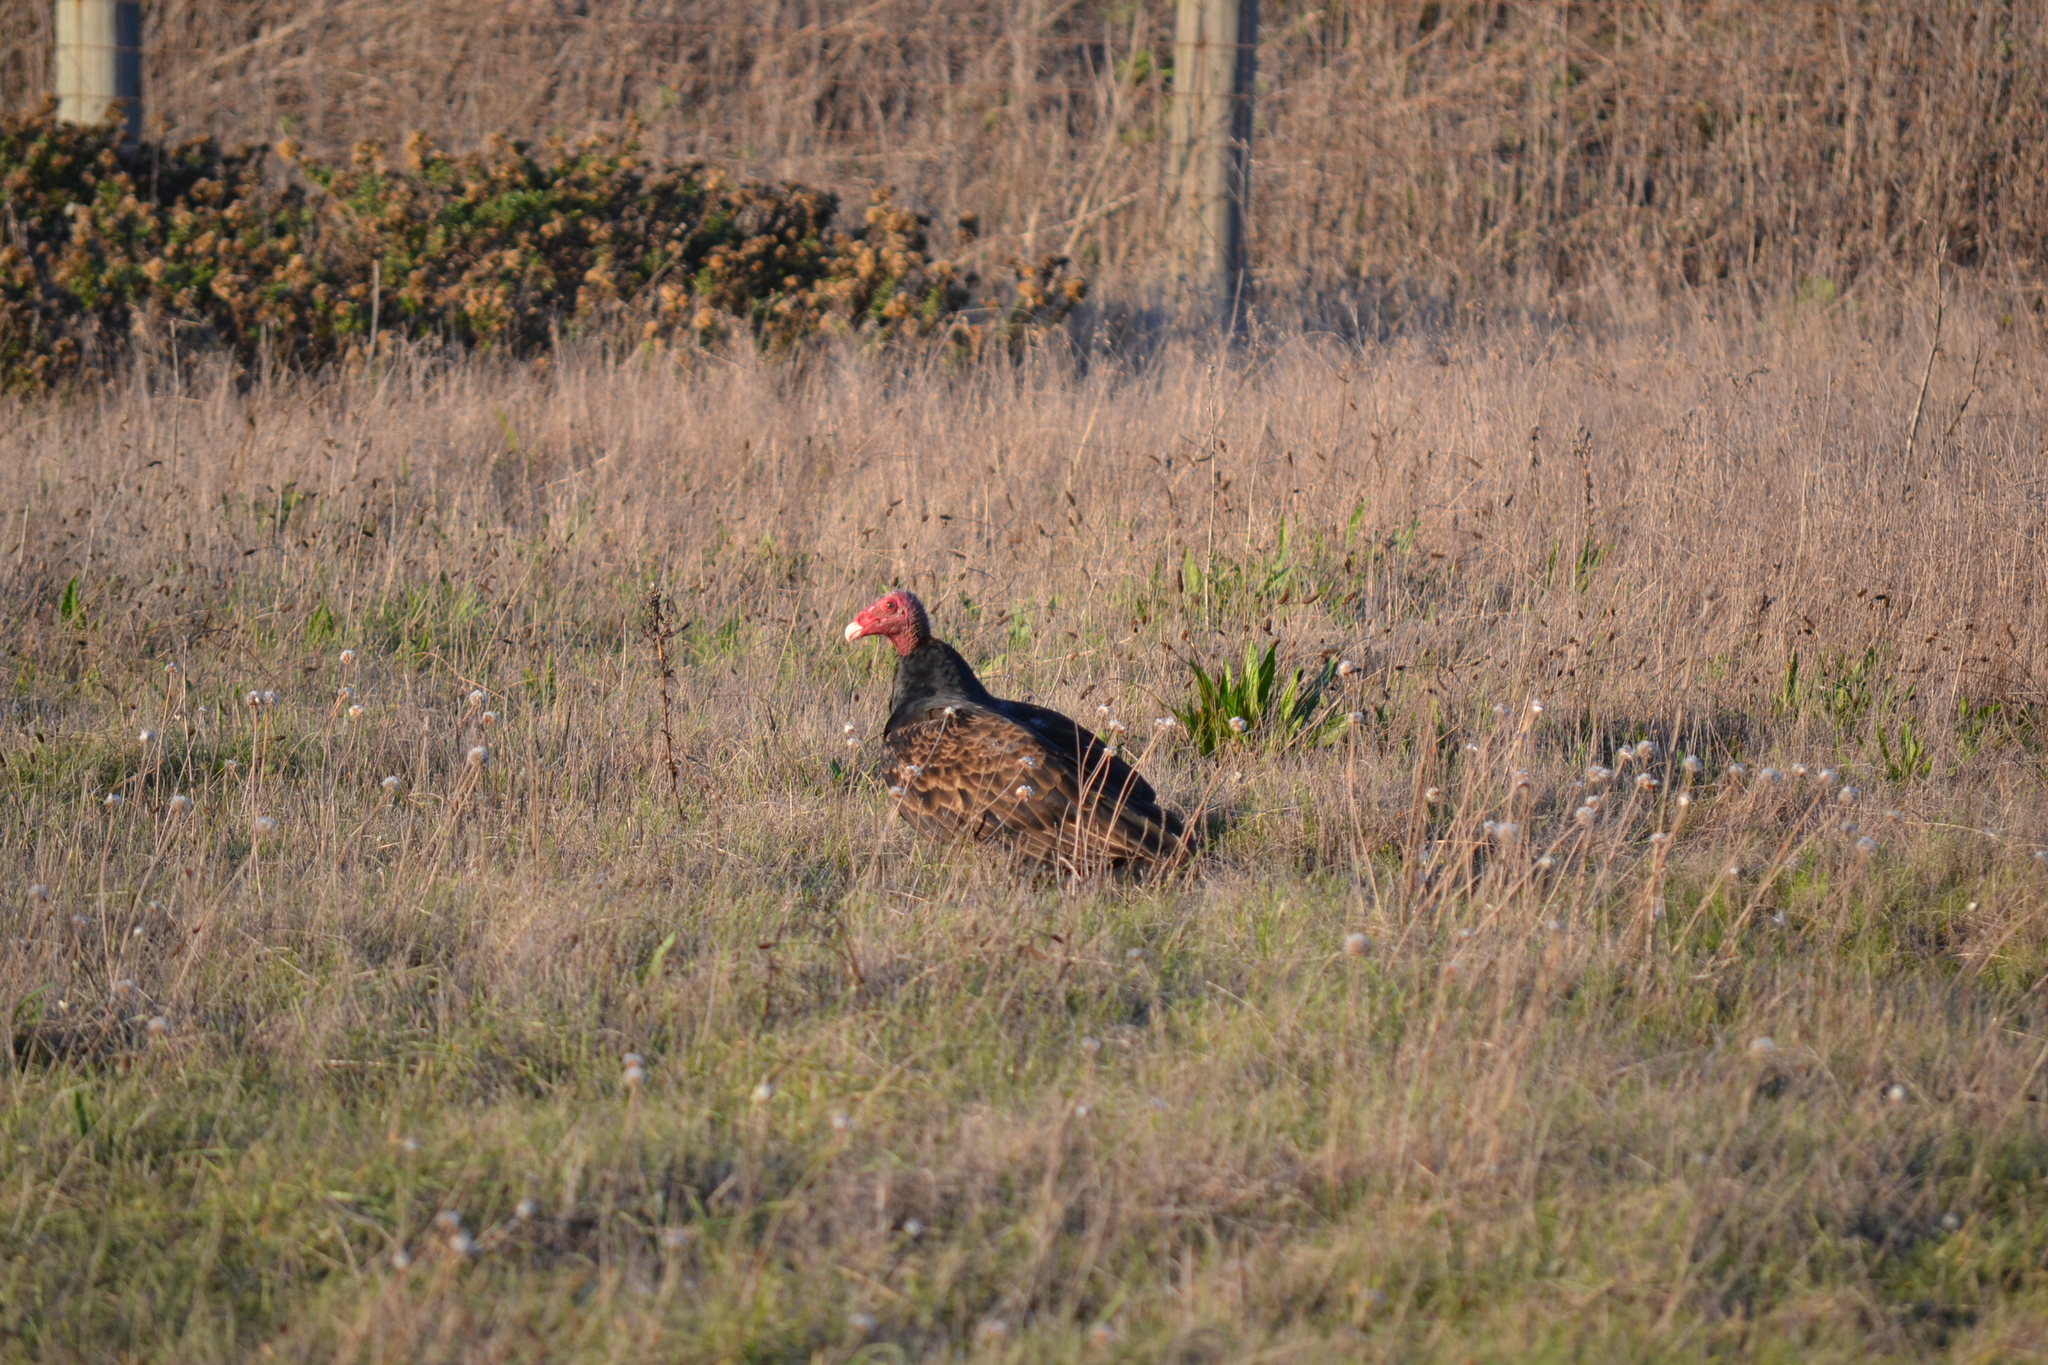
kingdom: Animalia
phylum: Chordata
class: Aves
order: Accipitriformes
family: Cathartidae
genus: Cathartes
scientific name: Cathartes aura
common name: Turkey vulture
